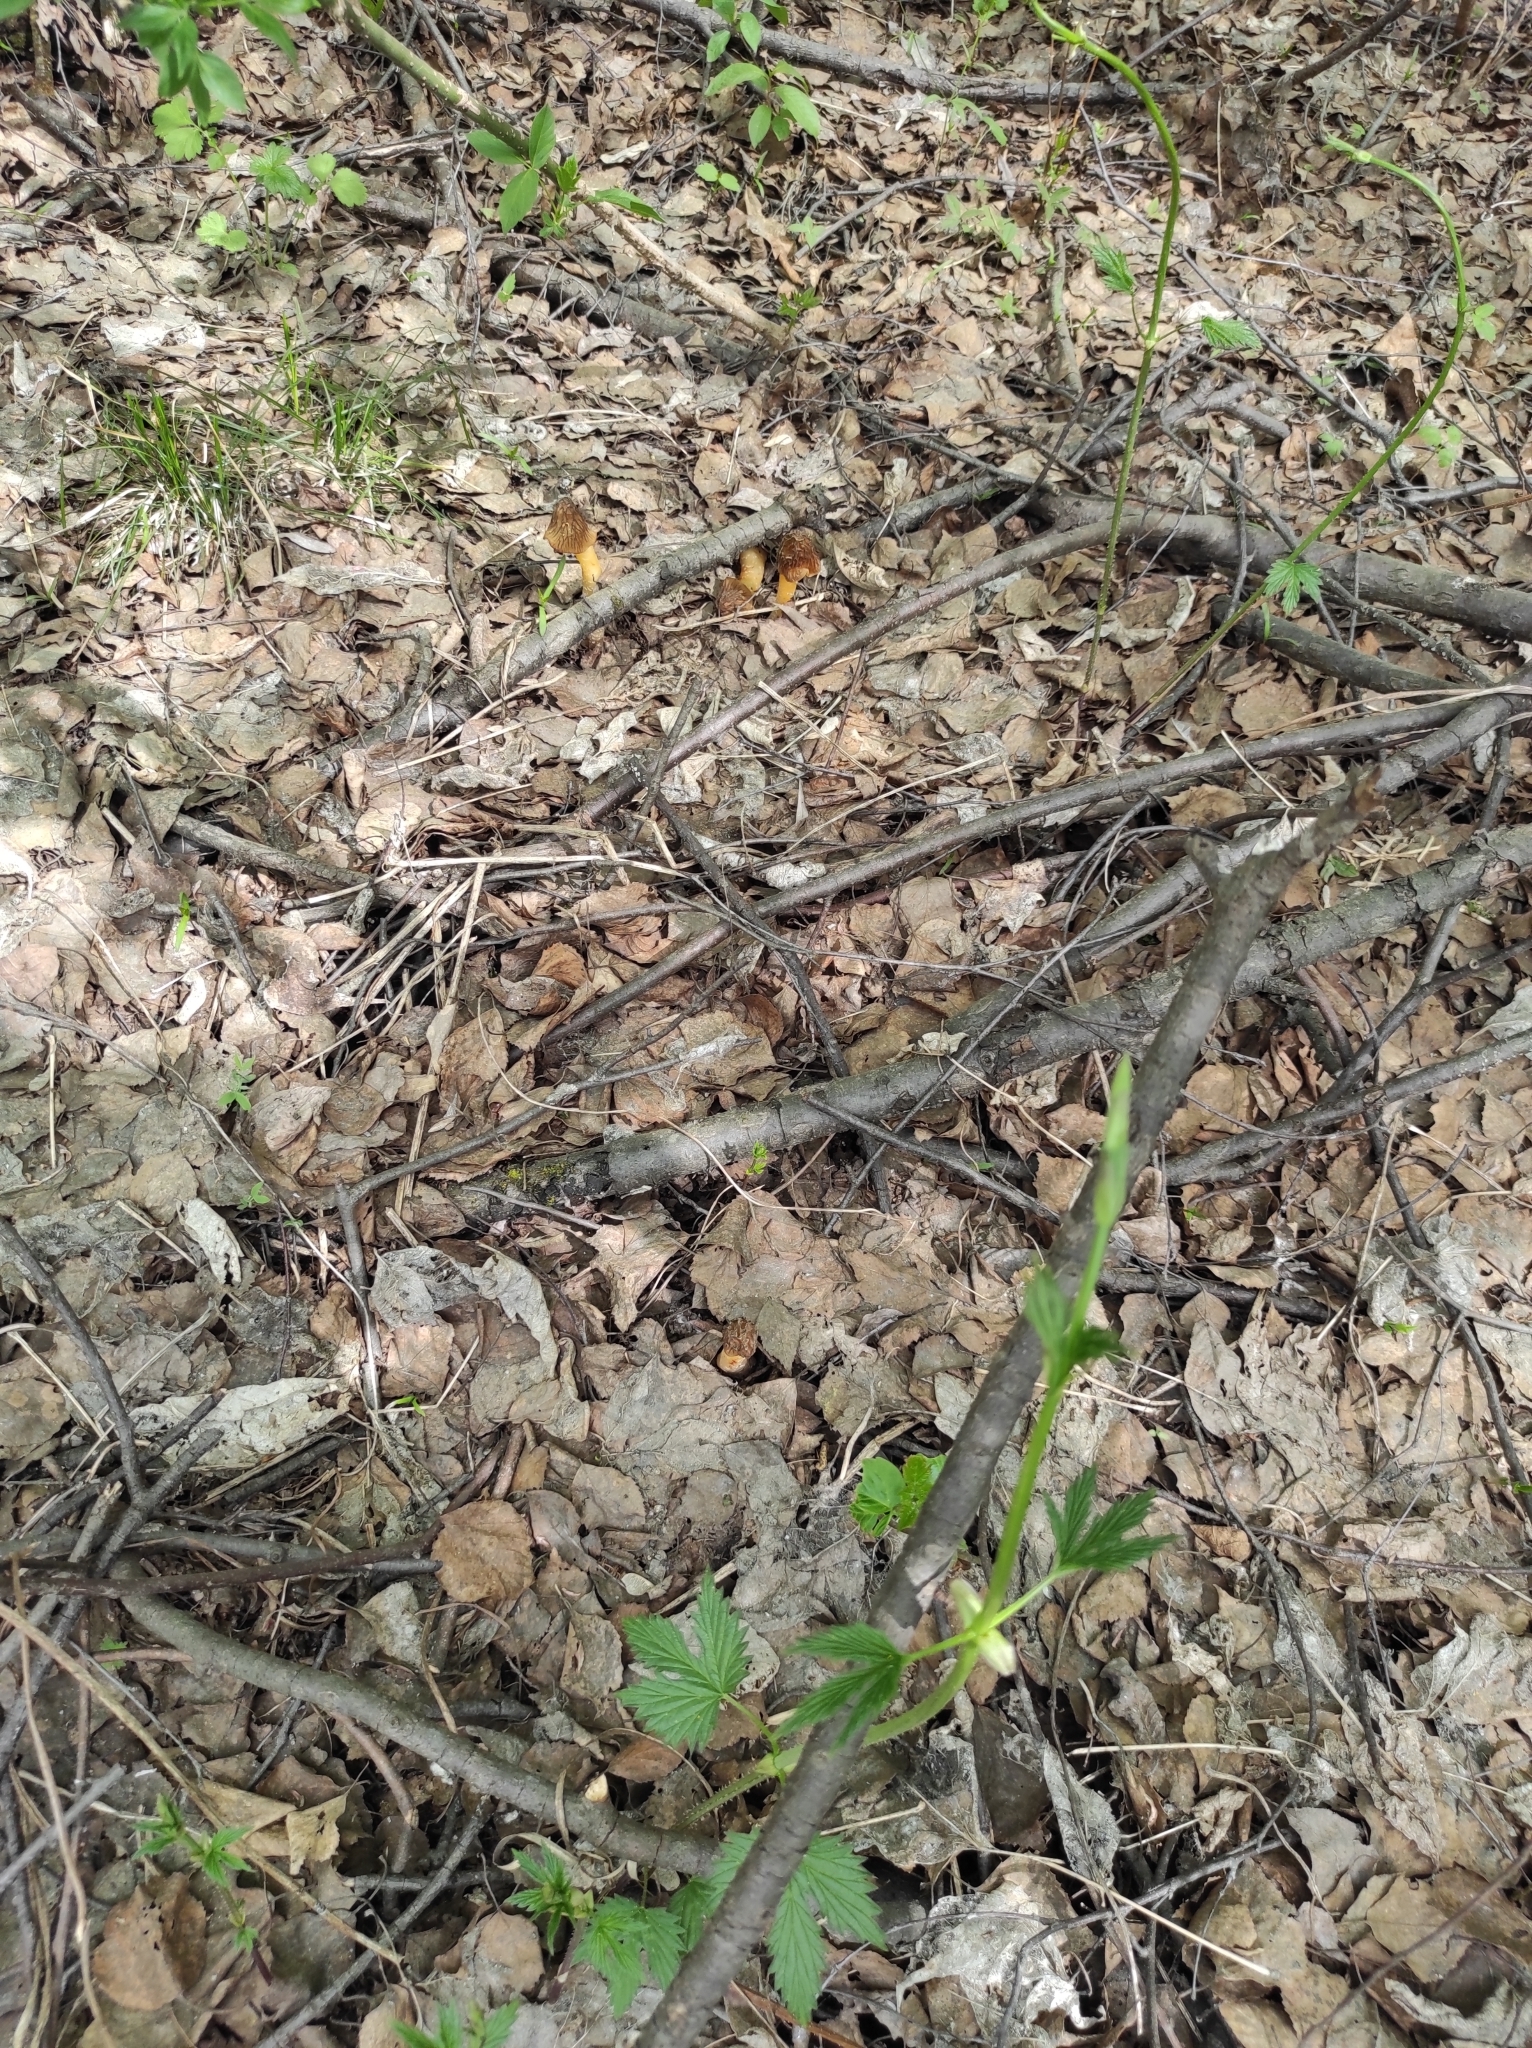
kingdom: Fungi
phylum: Ascomycota
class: Pezizomycetes
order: Pezizales
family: Morchellaceae
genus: Verpa
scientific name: Verpa bohemica
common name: Wrinkled thimble morel
